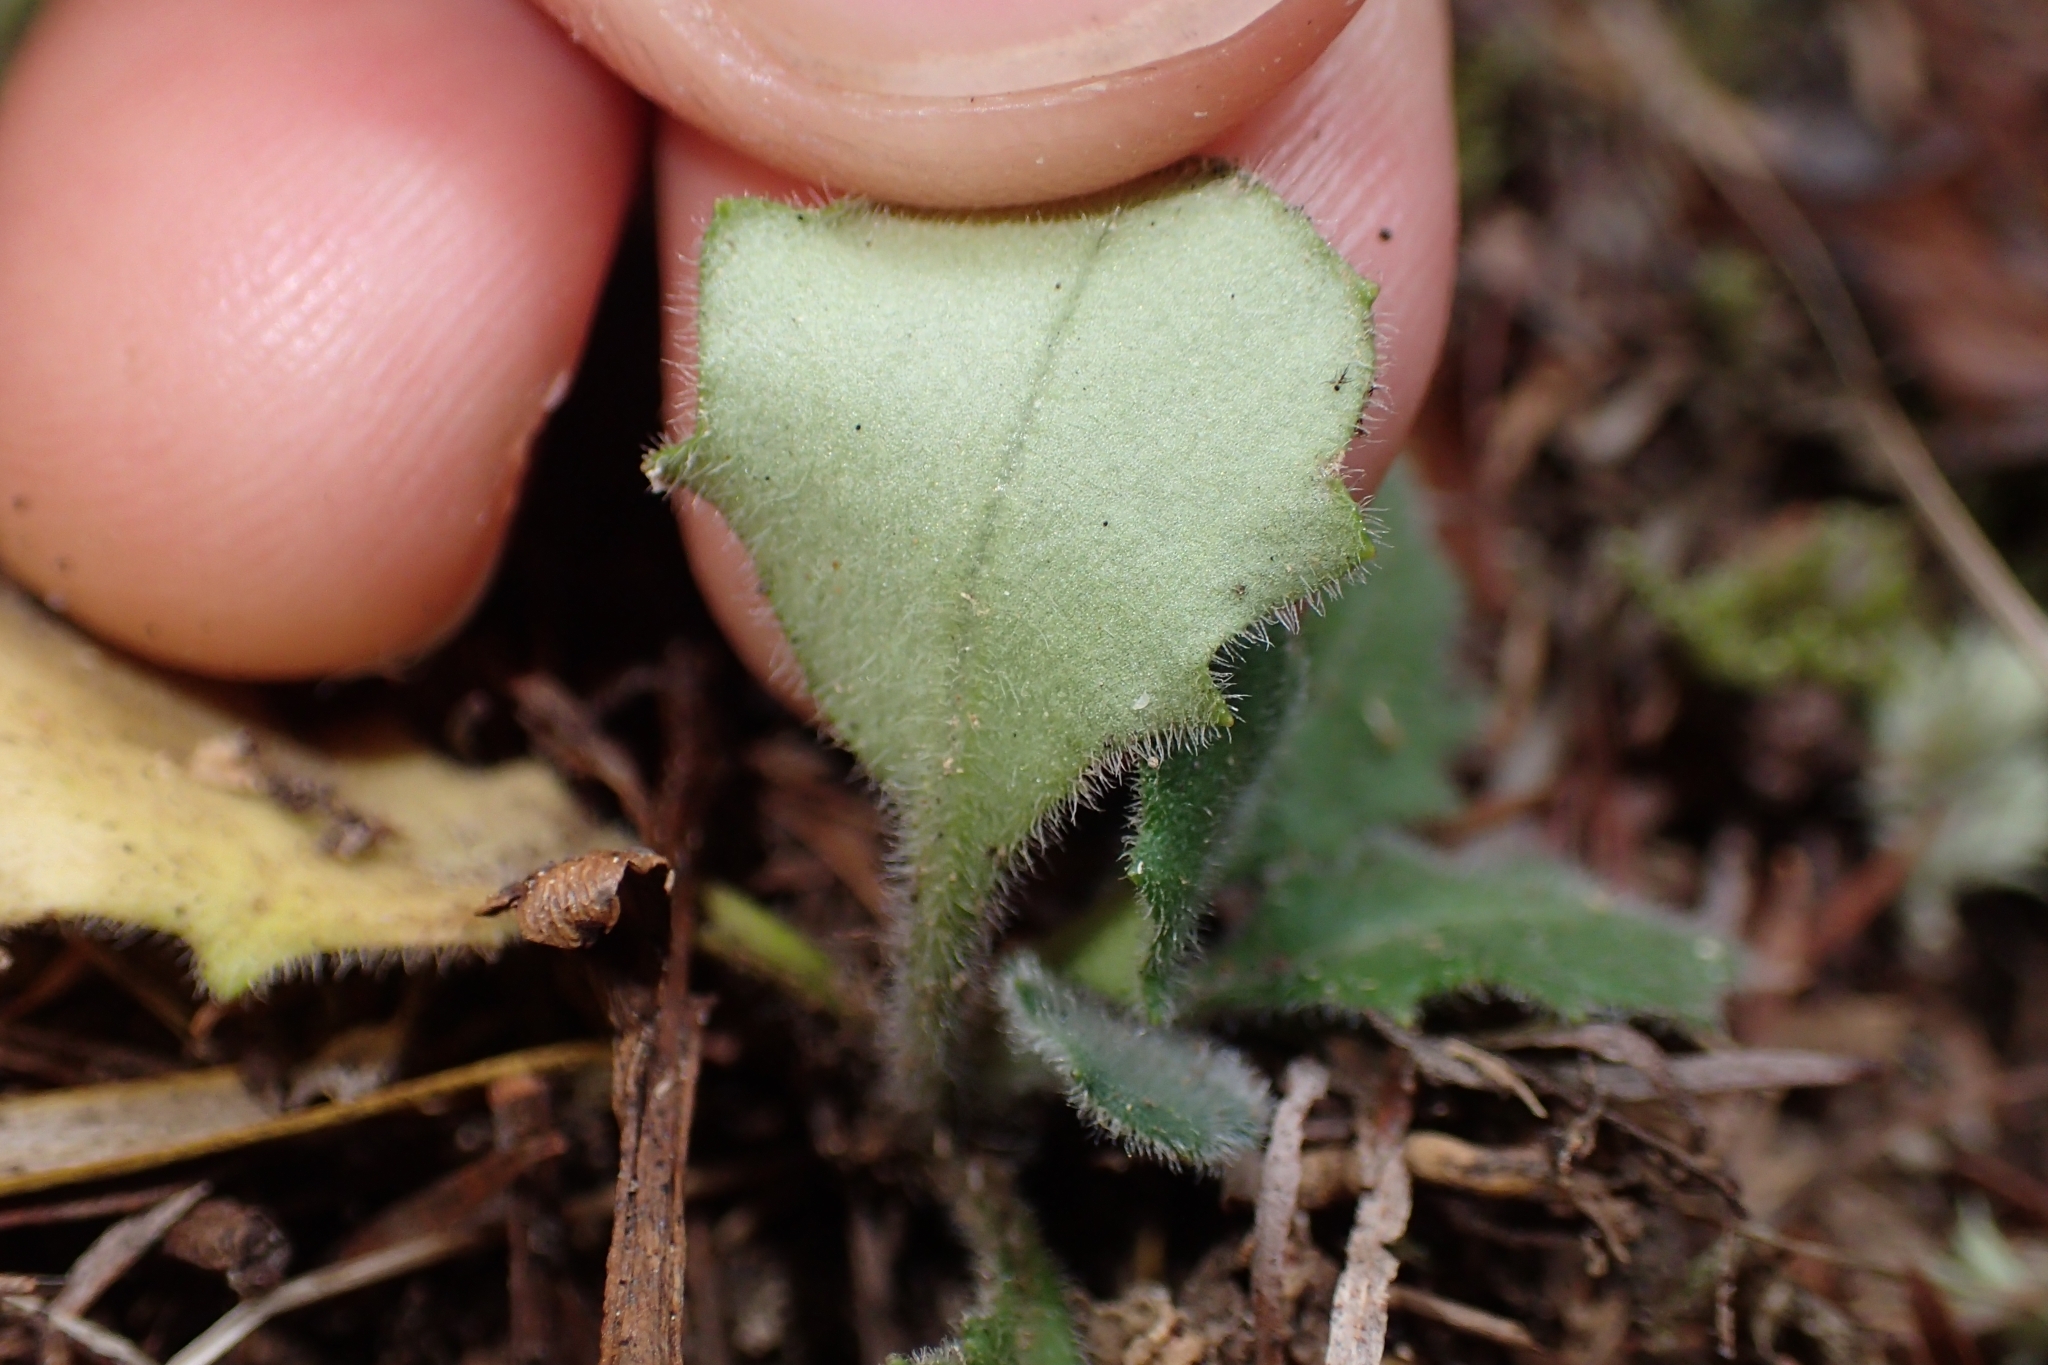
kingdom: Plantae
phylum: Tracheophyta
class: Magnoliopsida
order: Asterales
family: Asteraceae
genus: Lagenophora
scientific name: Lagenophora sublyrata ter
